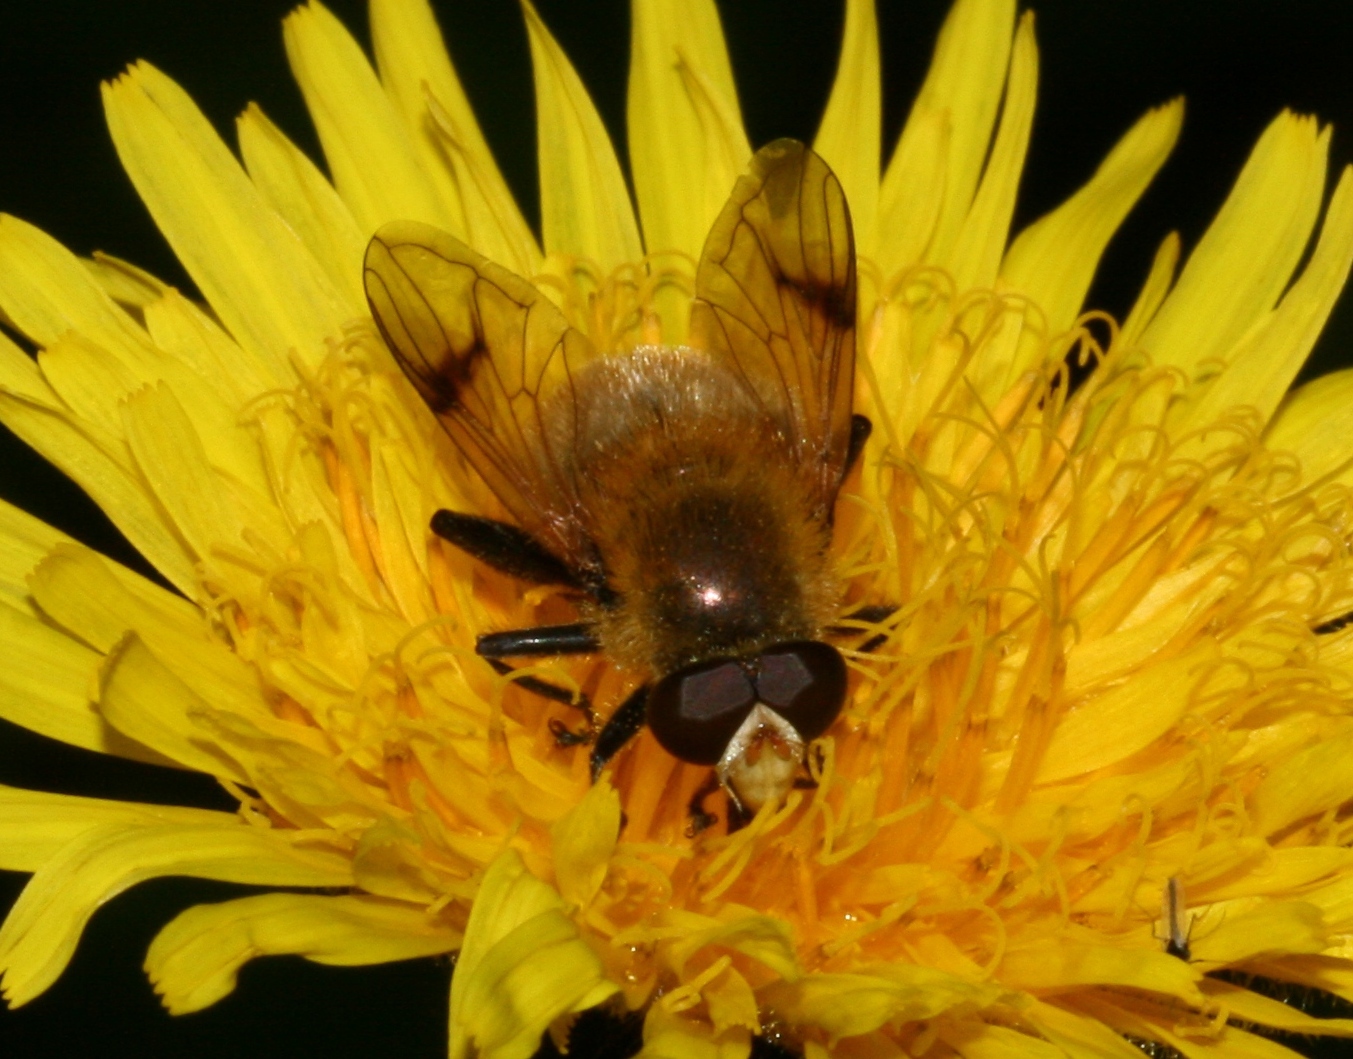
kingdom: Animalia
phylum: Arthropoda
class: Insecta
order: Diptera
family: Syrphidae
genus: Sericomyia
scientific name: Sericomyia superbiens
